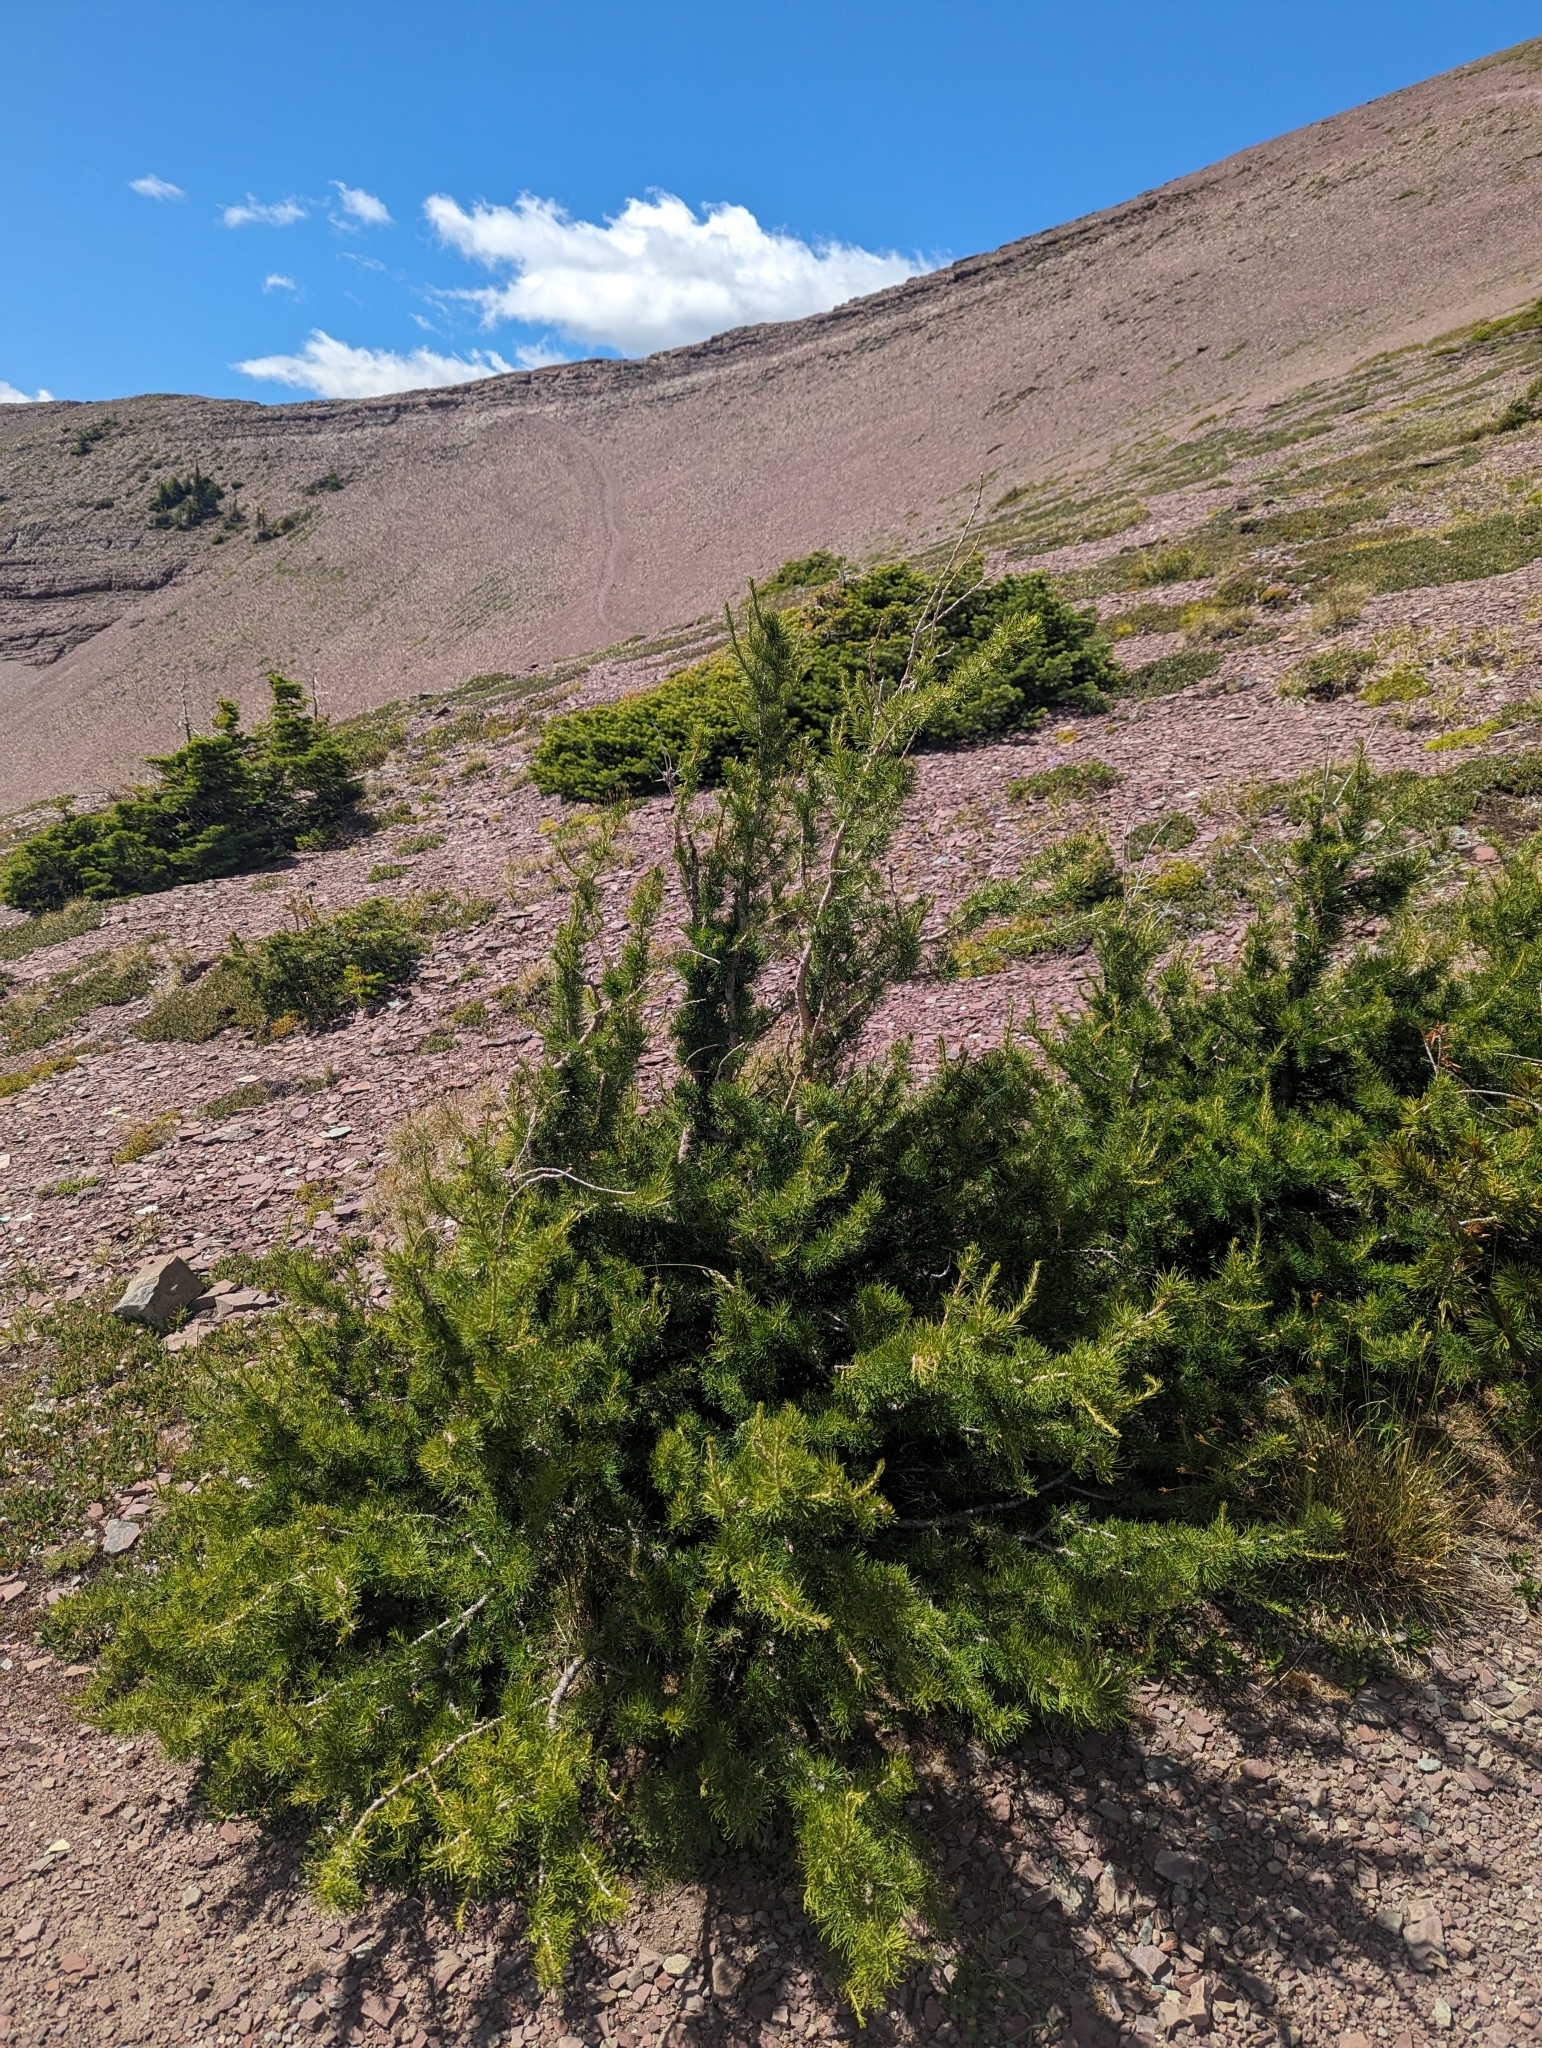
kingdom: Plantae
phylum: Tracheophyta
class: Pinopsida
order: Pinales
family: Pinaceae
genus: Larix
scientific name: Larix lyallii
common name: Alpine larch
